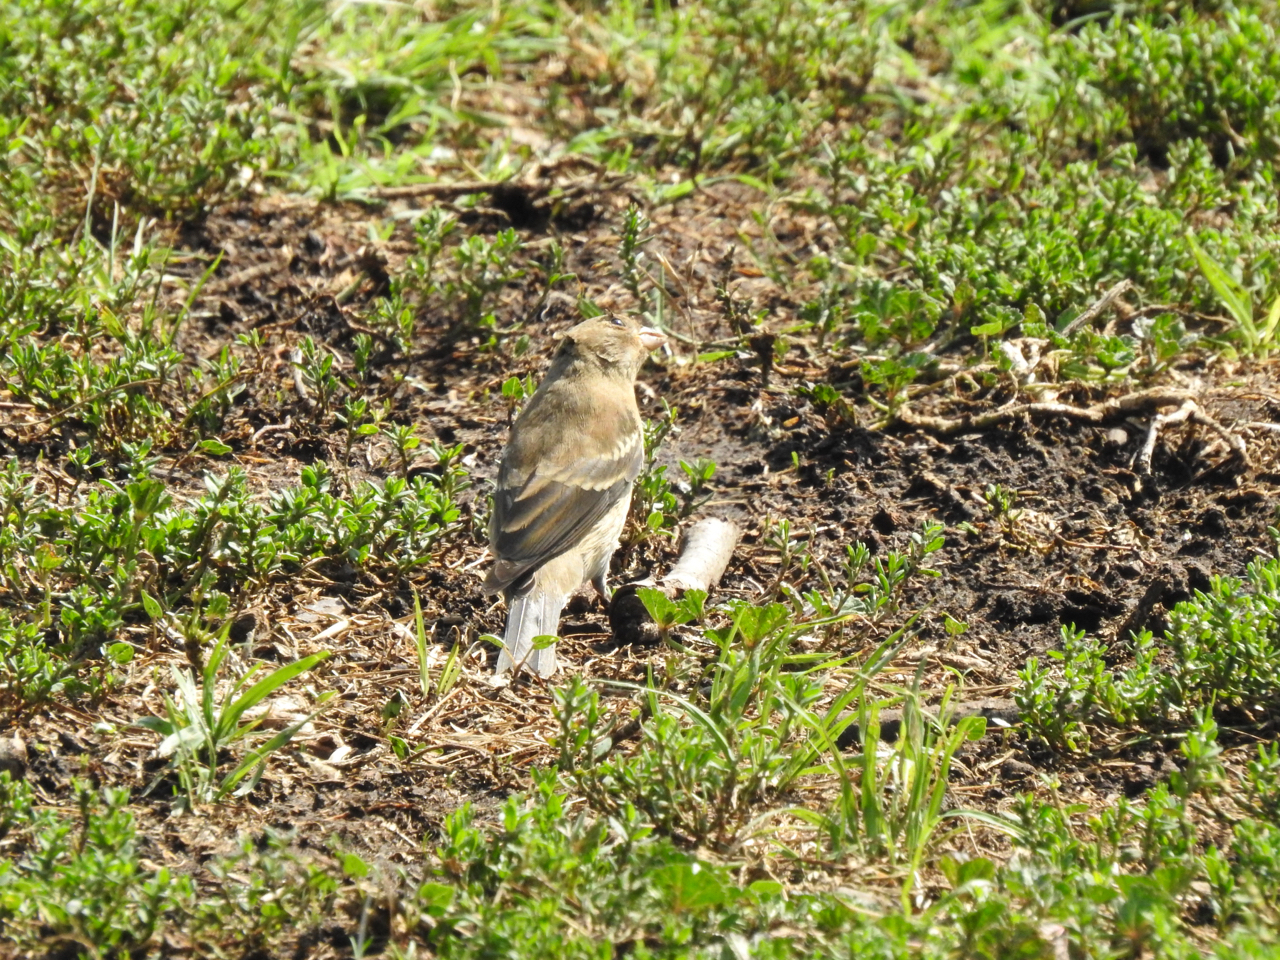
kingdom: Animalia
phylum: Chordata
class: Aves
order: Passeriformes
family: Cardinalidae
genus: Passerina
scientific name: Passerina amoena
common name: Lazuli bunting
